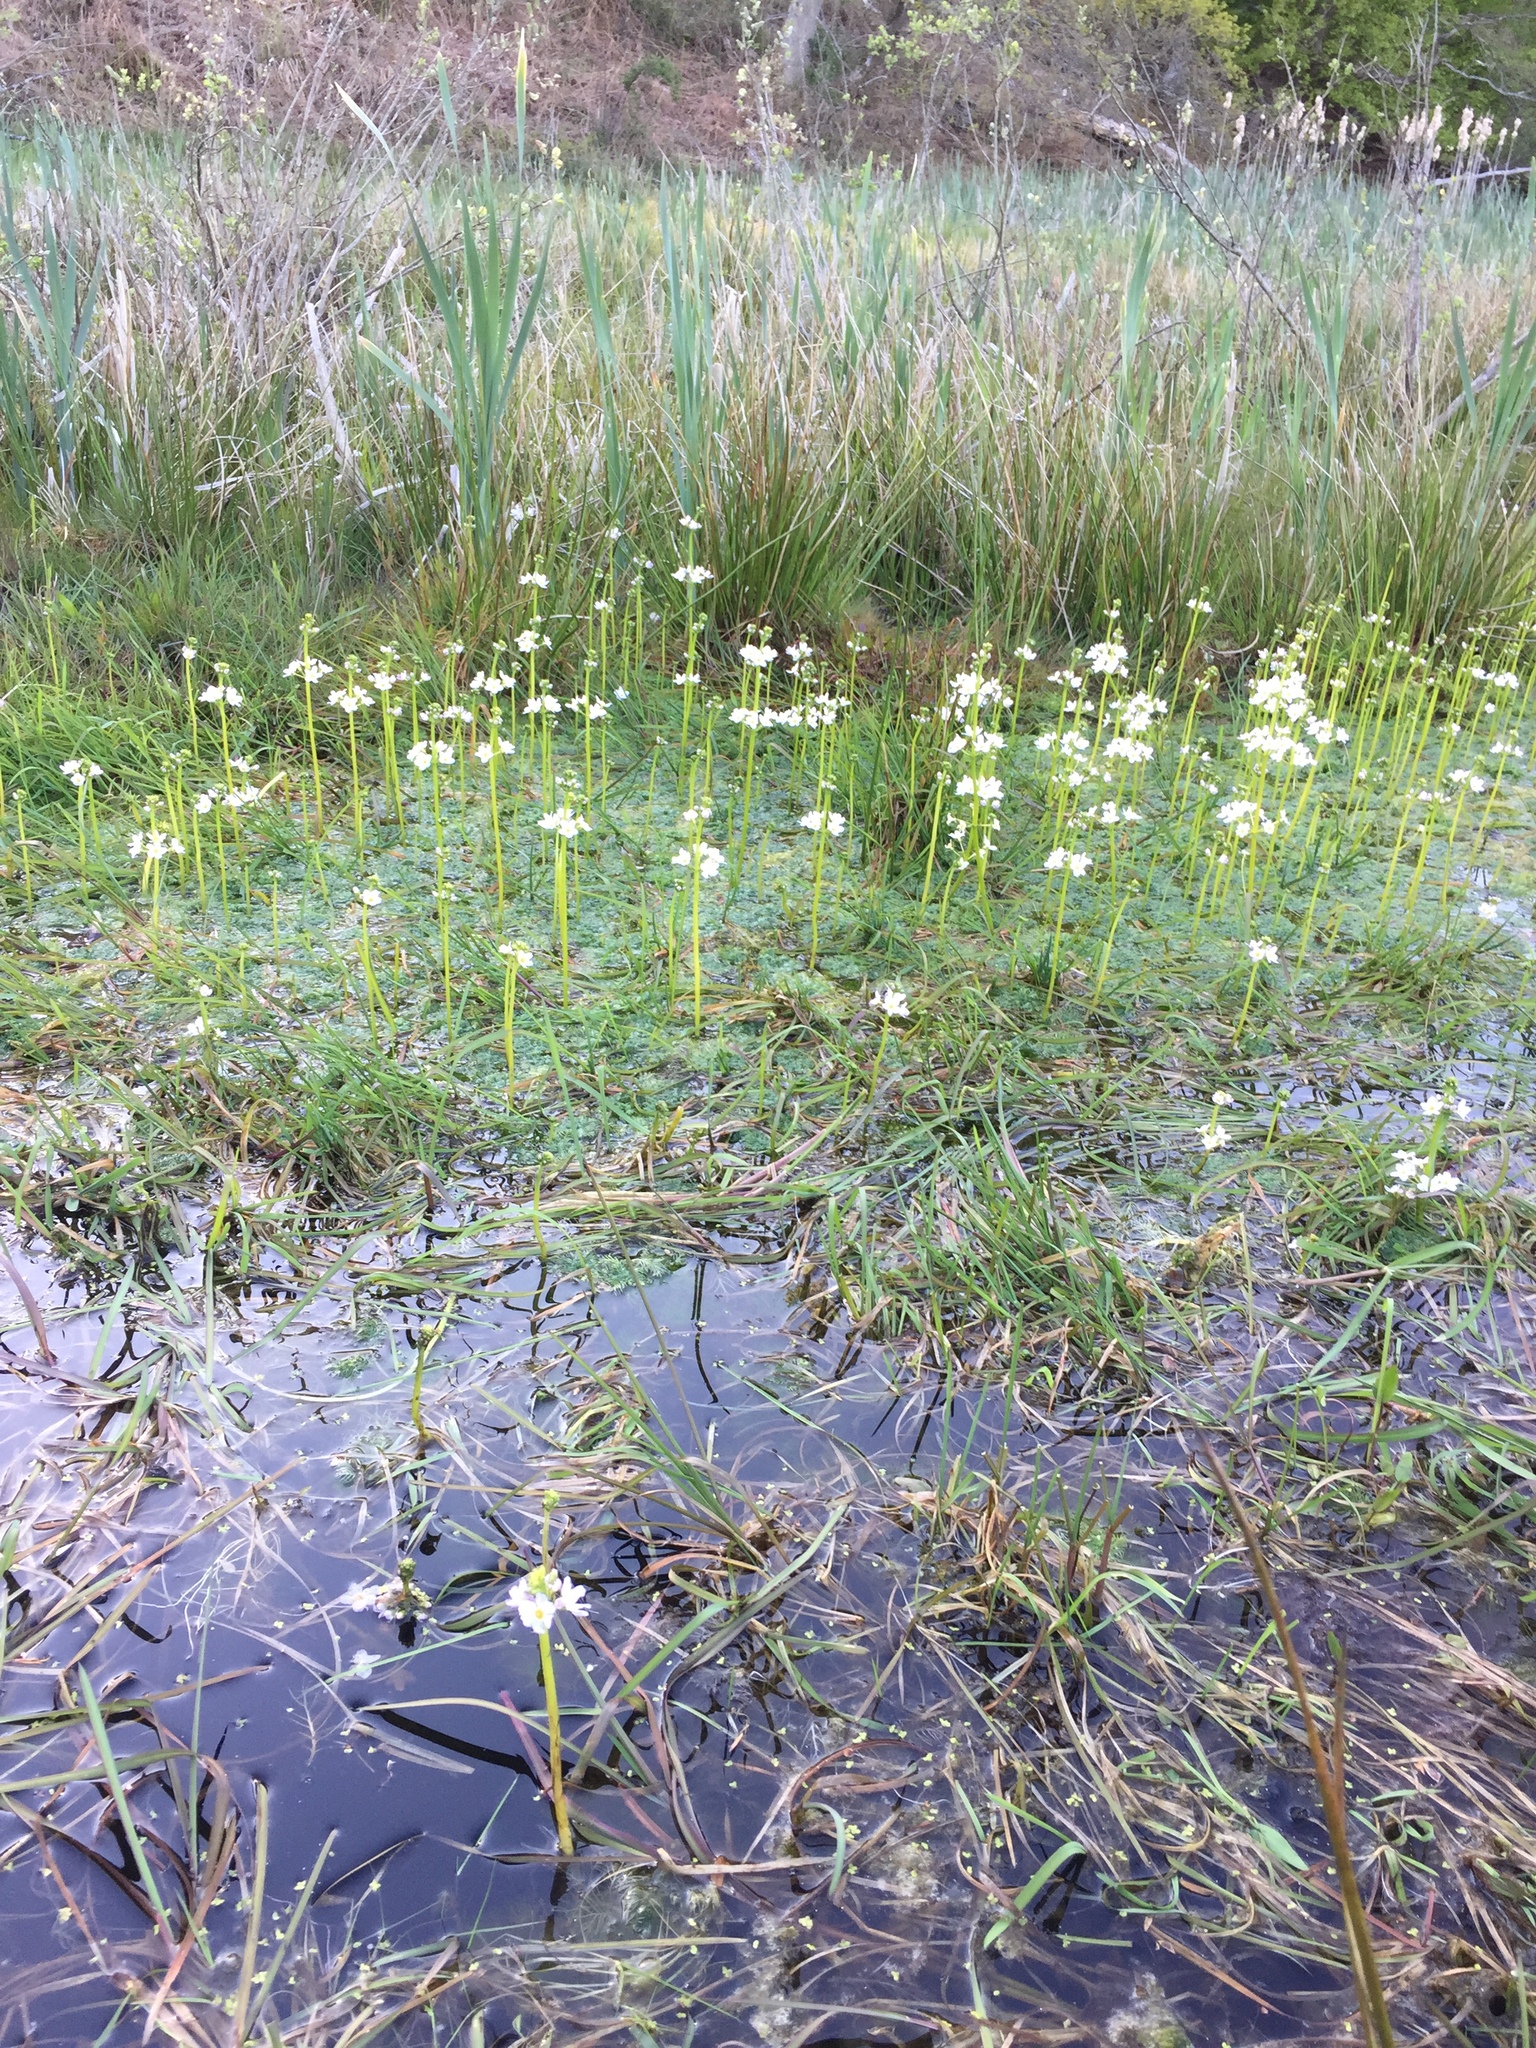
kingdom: Plantae
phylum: Tracheophyta
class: Magnoliopsida
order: Ericales
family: Primulaceae
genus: Hottonia
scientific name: Hottonia palustris
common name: Water-violet
